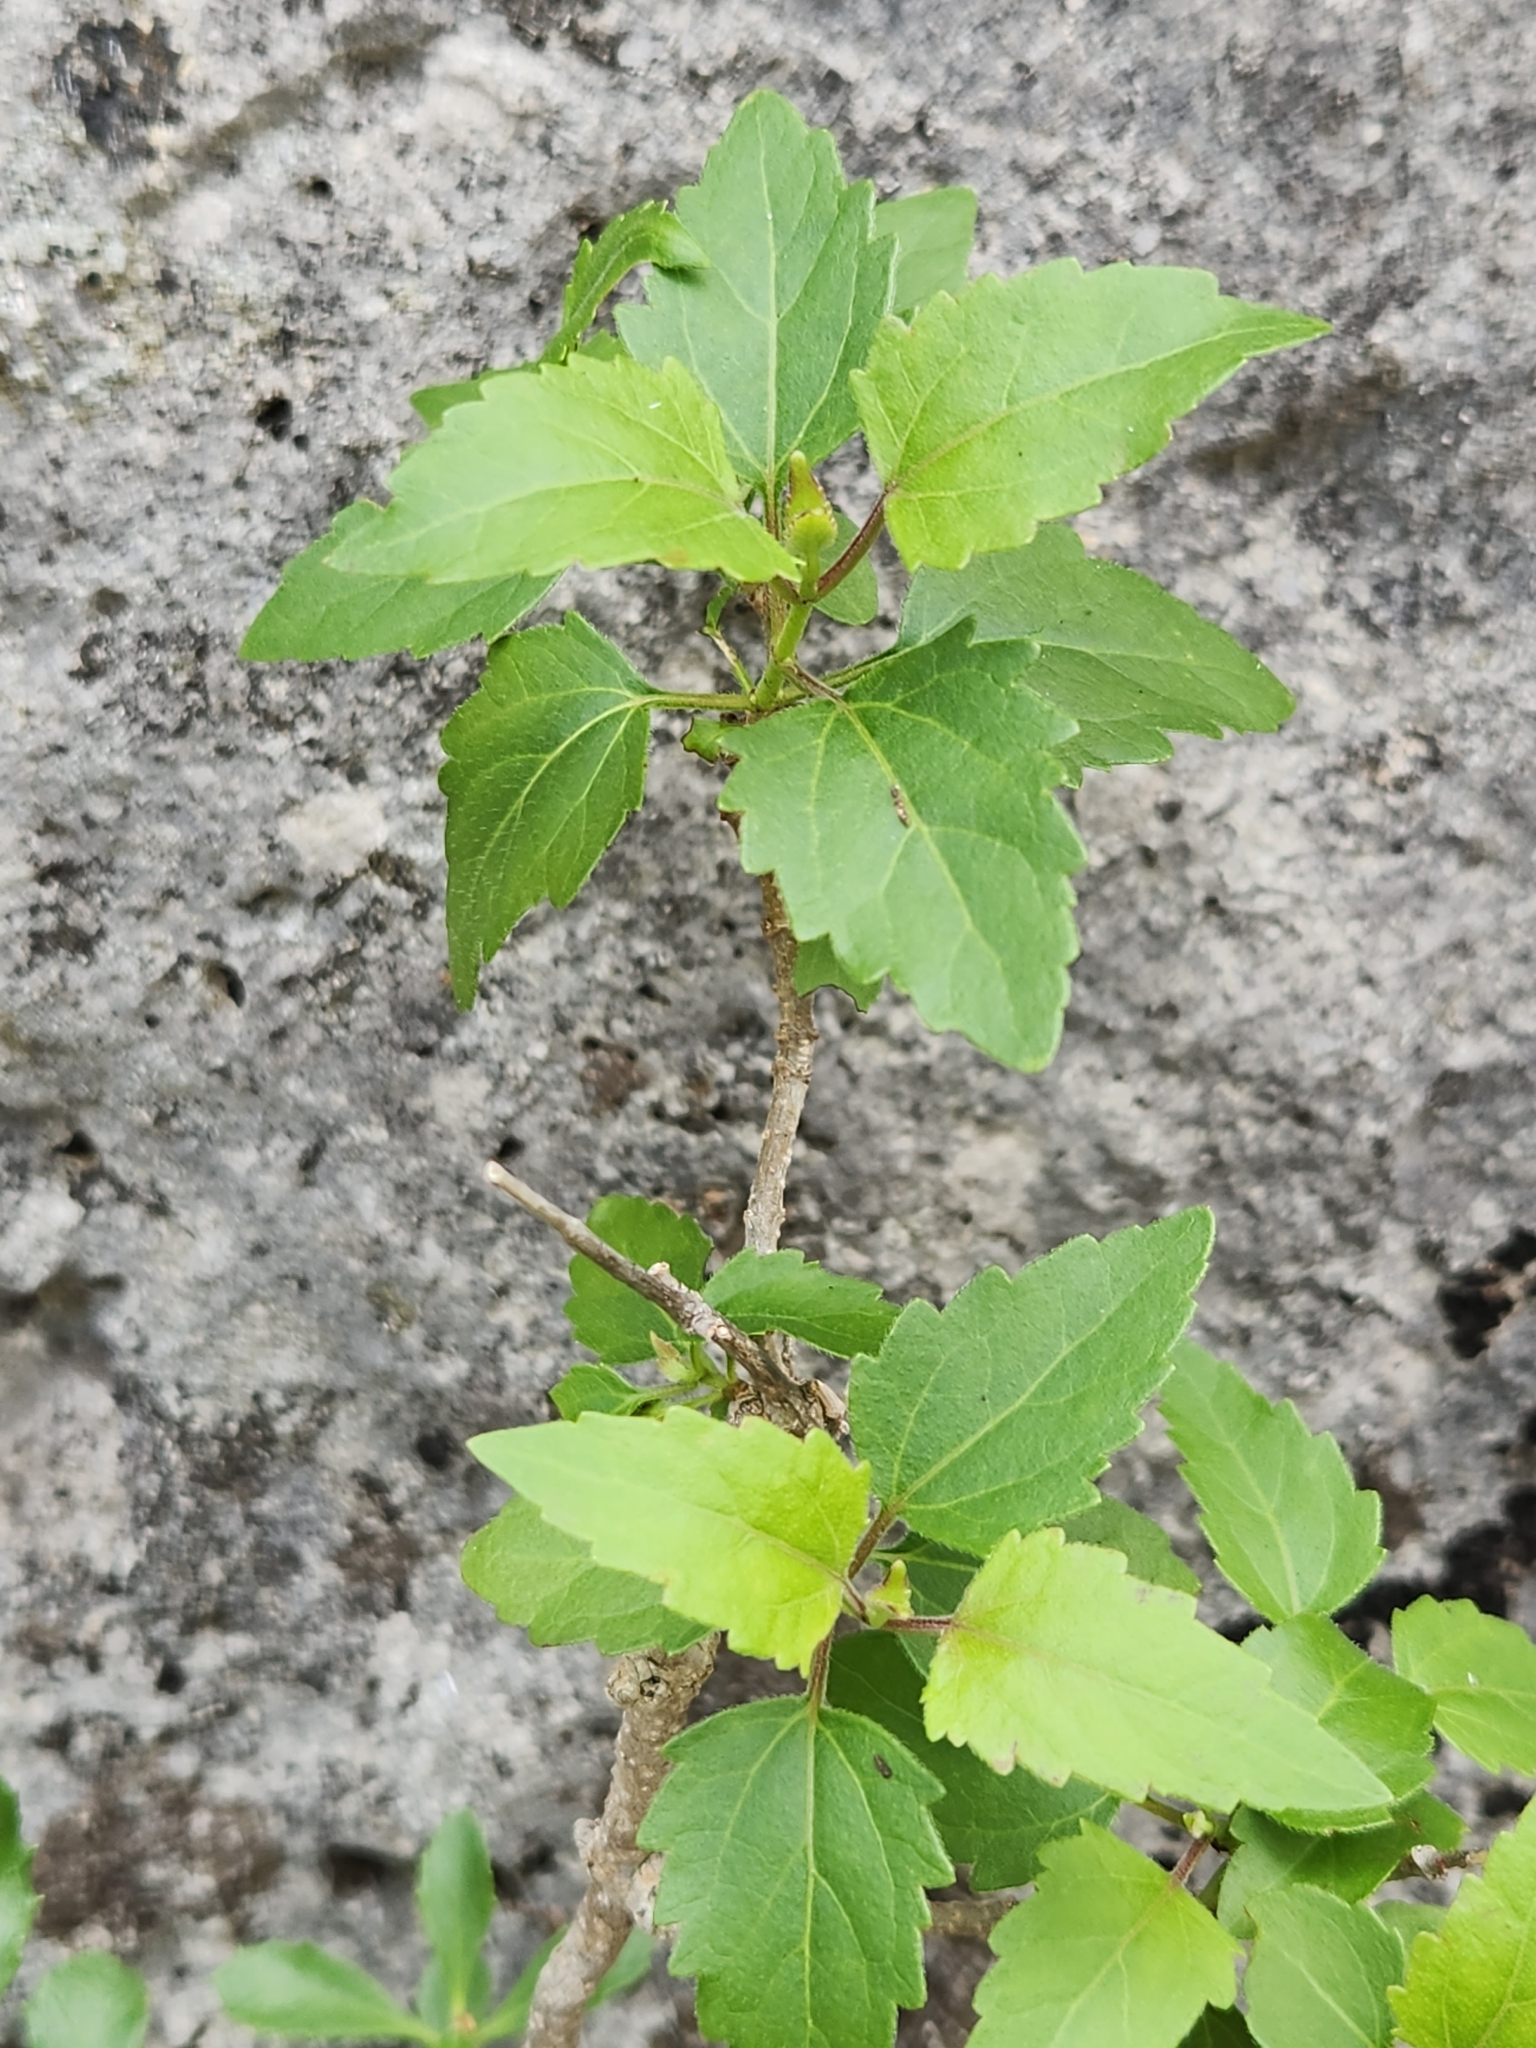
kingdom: Plantae
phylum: Tracheophyta
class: Magnoliopsida
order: Asterales
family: Asteraceae
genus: Ageratina
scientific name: Ageratina havanensis
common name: Havana snakeroot
